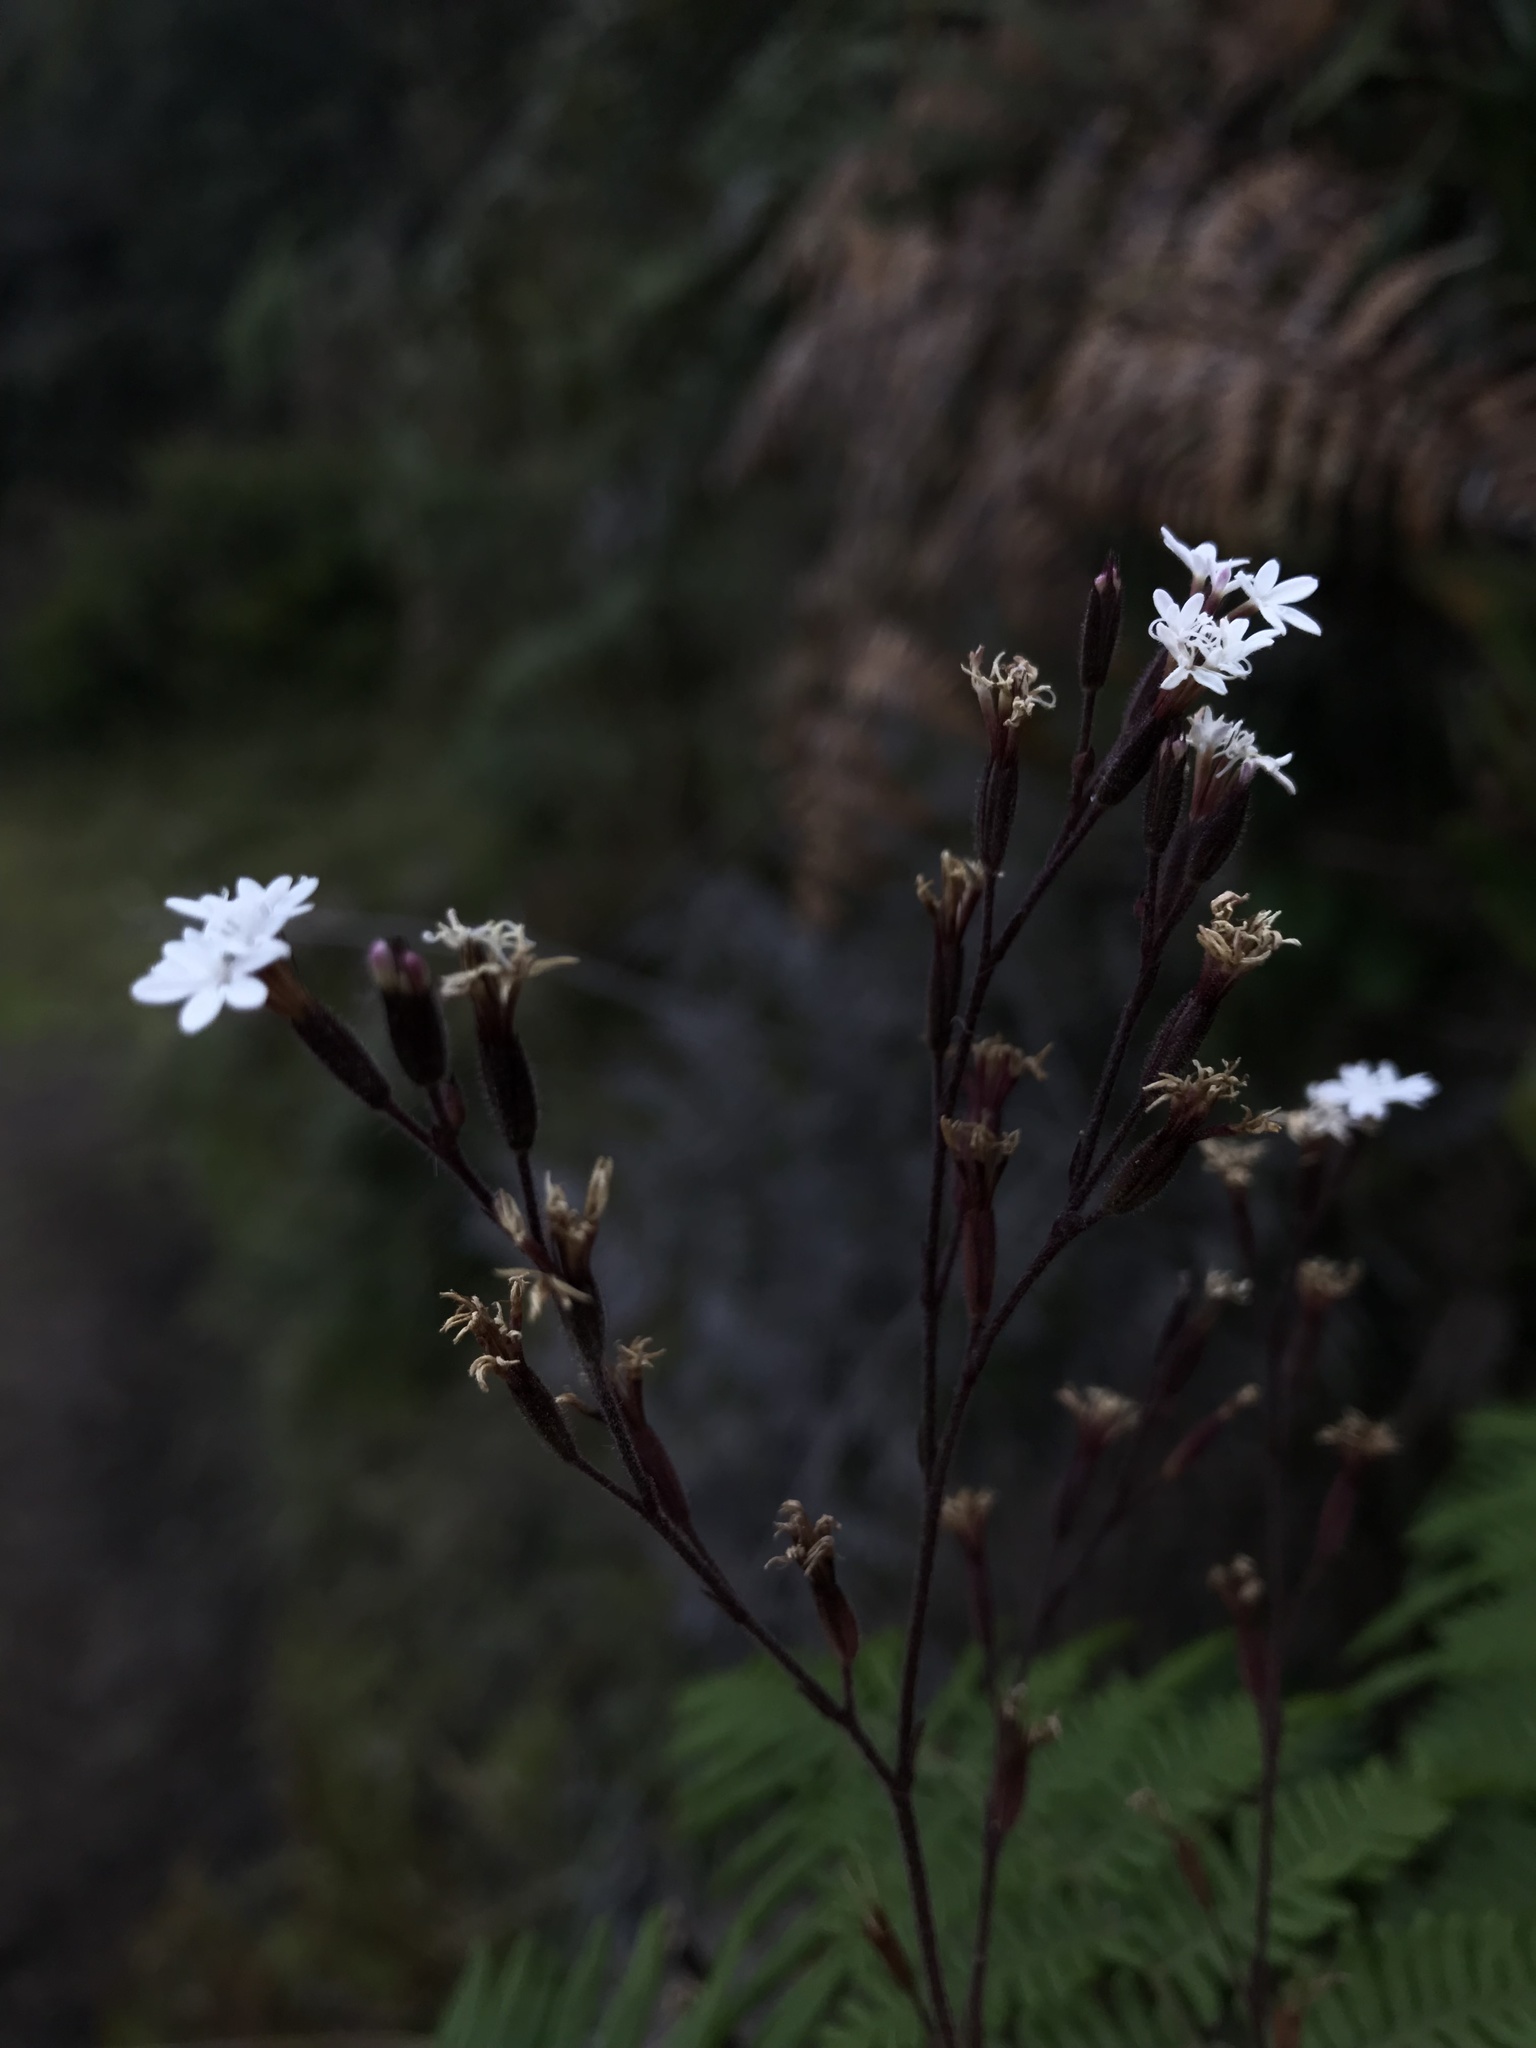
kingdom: Plantae
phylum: Tracheophyta
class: Magnoliopsida
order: Asterales
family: Asteraceae
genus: Stevia
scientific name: Stevia elatior
